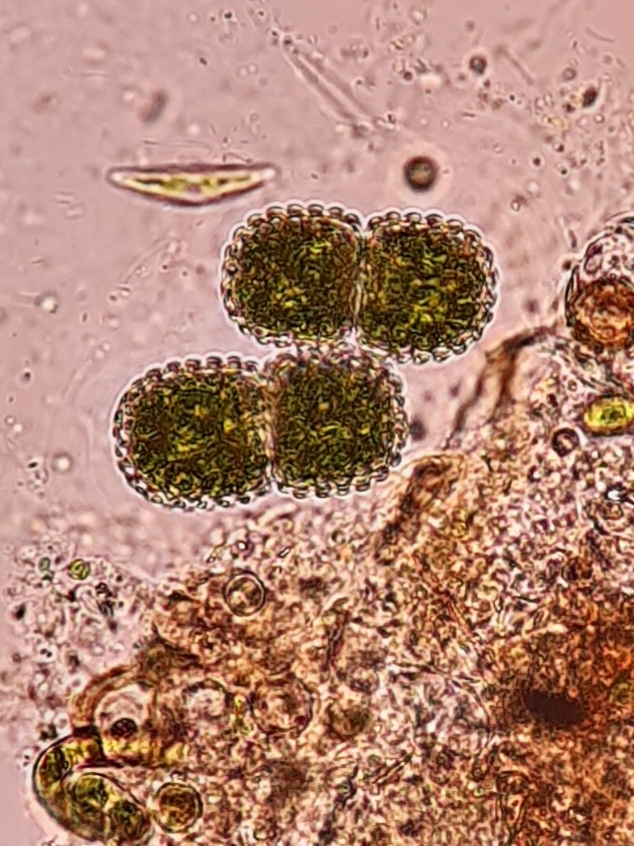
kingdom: Plantae
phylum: Charophyta
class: Conjugatophyceae
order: Desmidiales
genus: Cosmarium
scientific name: Cosmarium amoenum
